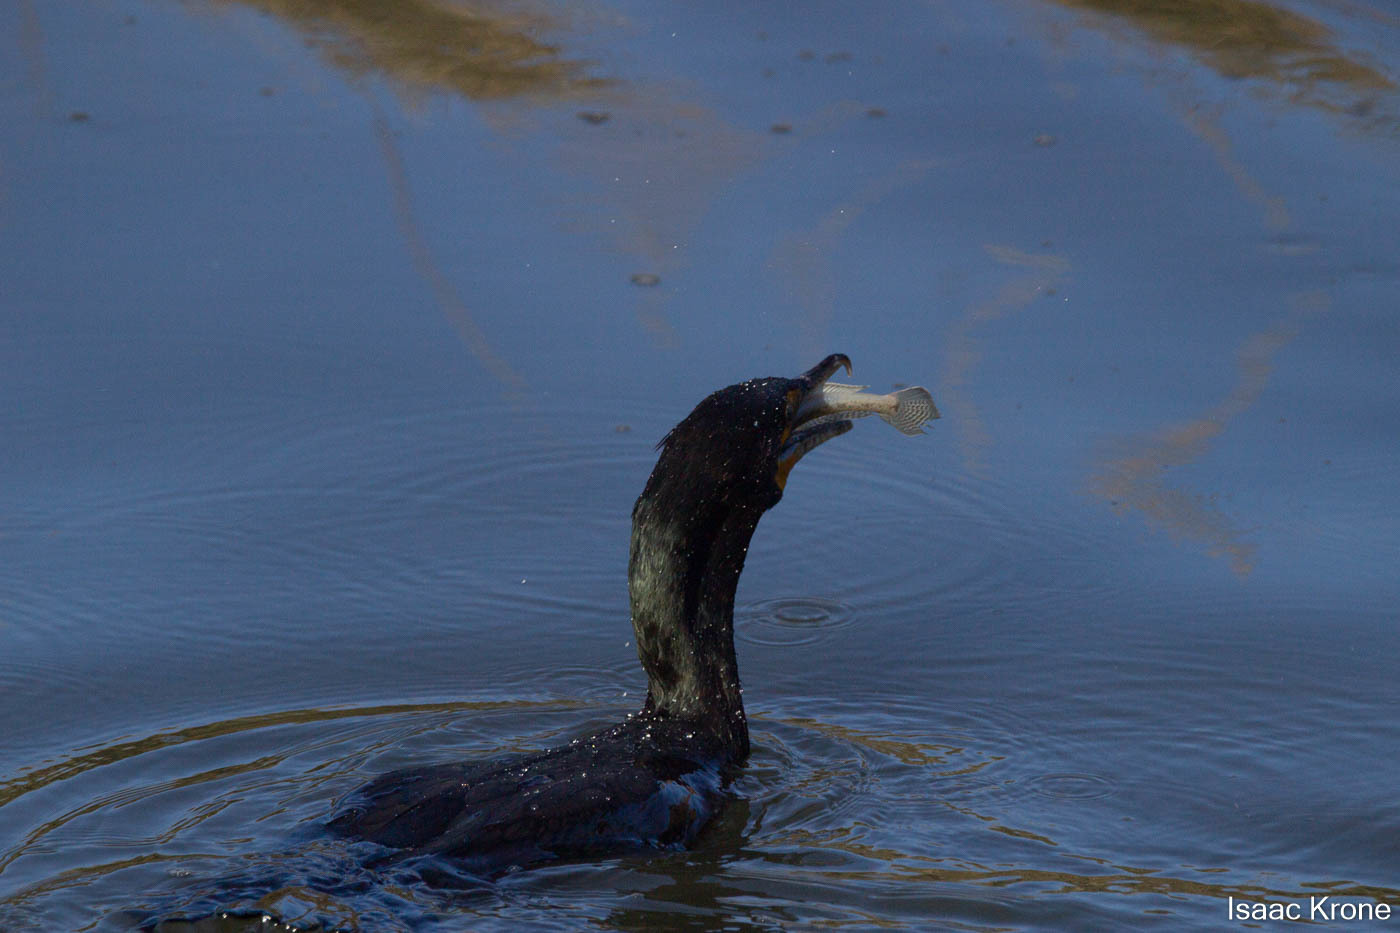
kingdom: Animalia
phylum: Chordata
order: Perciformes
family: Gobiidae
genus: Acanthogobius
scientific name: Acanthogobius flavimanus
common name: Yellowfin goby
